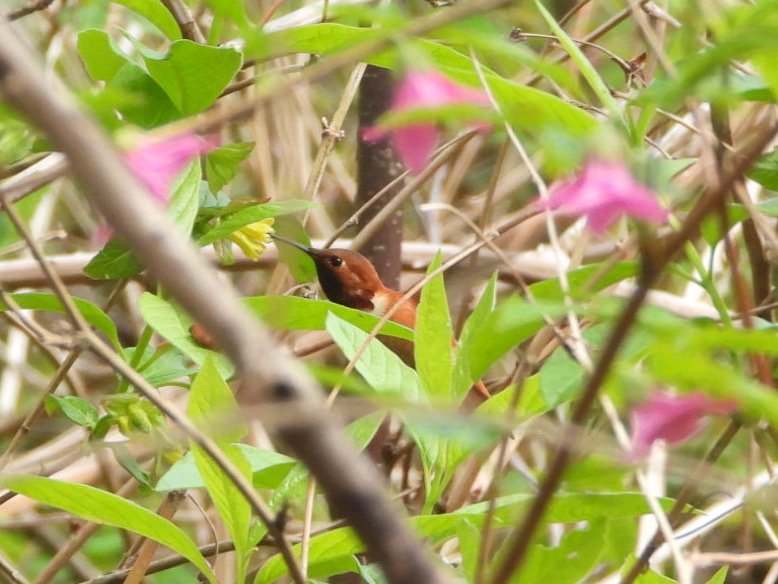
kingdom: Animalia
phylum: Chordata
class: Aves
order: Apodiformes
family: Trochilidae
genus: Selasphorus
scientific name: Selasphorus rufus
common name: Rufous hummingbird
